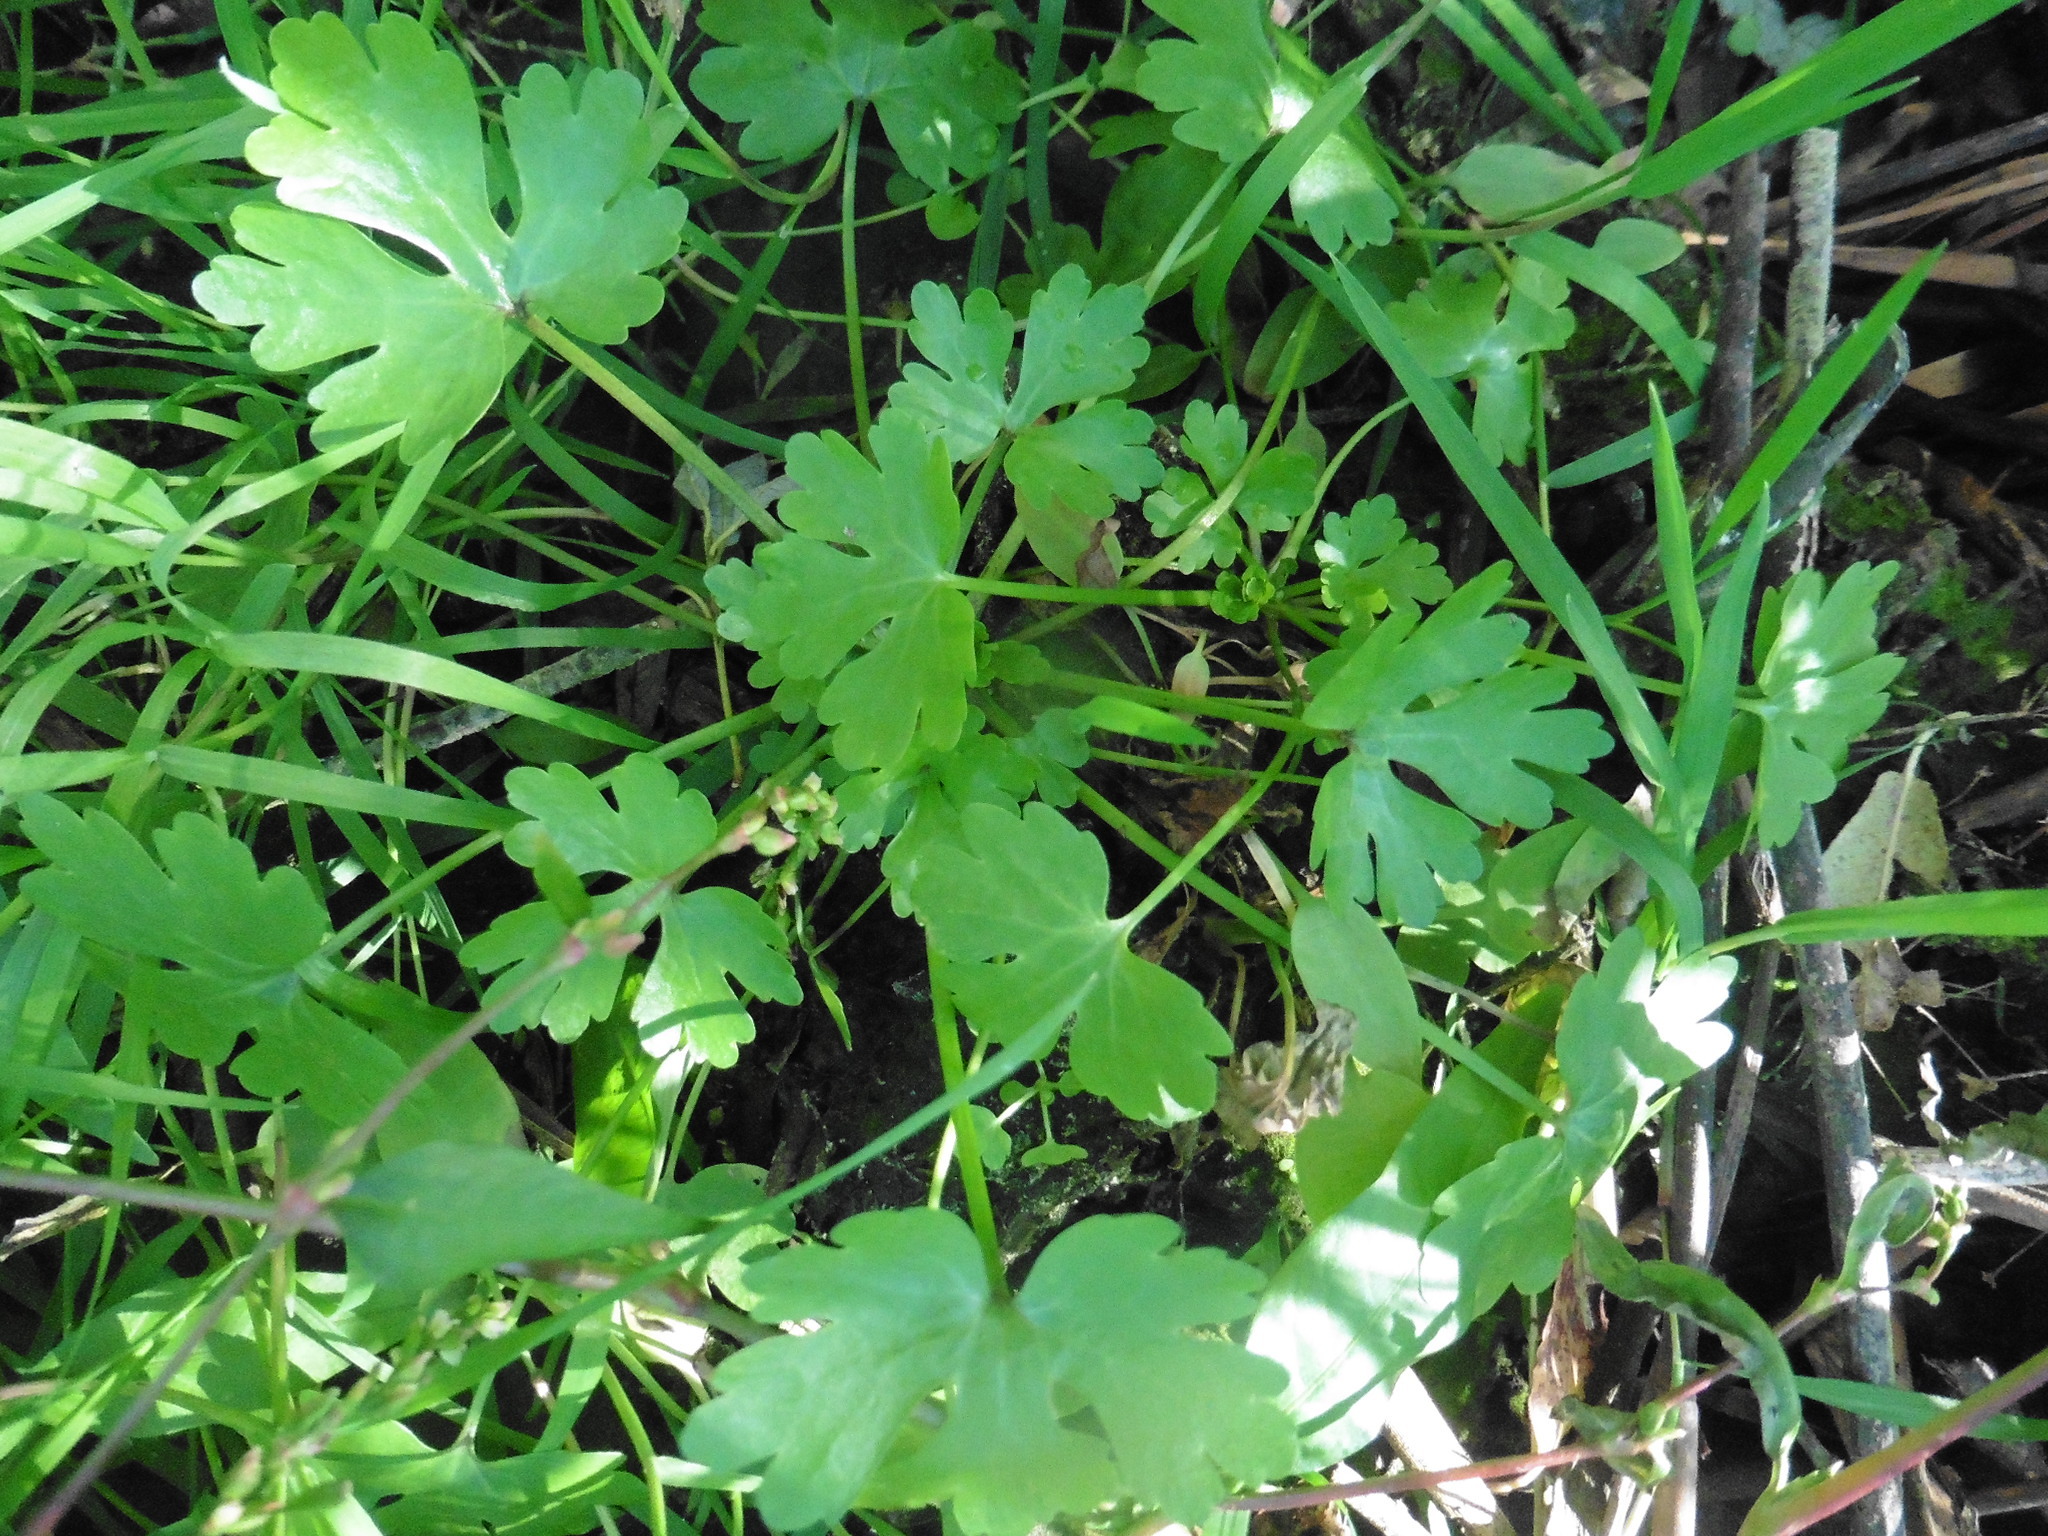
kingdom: Plantae
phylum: Tracheophyta
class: Magnoliopsida
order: Ranunculales
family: Ranunculaceae
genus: Ranunculus
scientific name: Ranunculus sceleratus
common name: Celery-leaved buttercup
